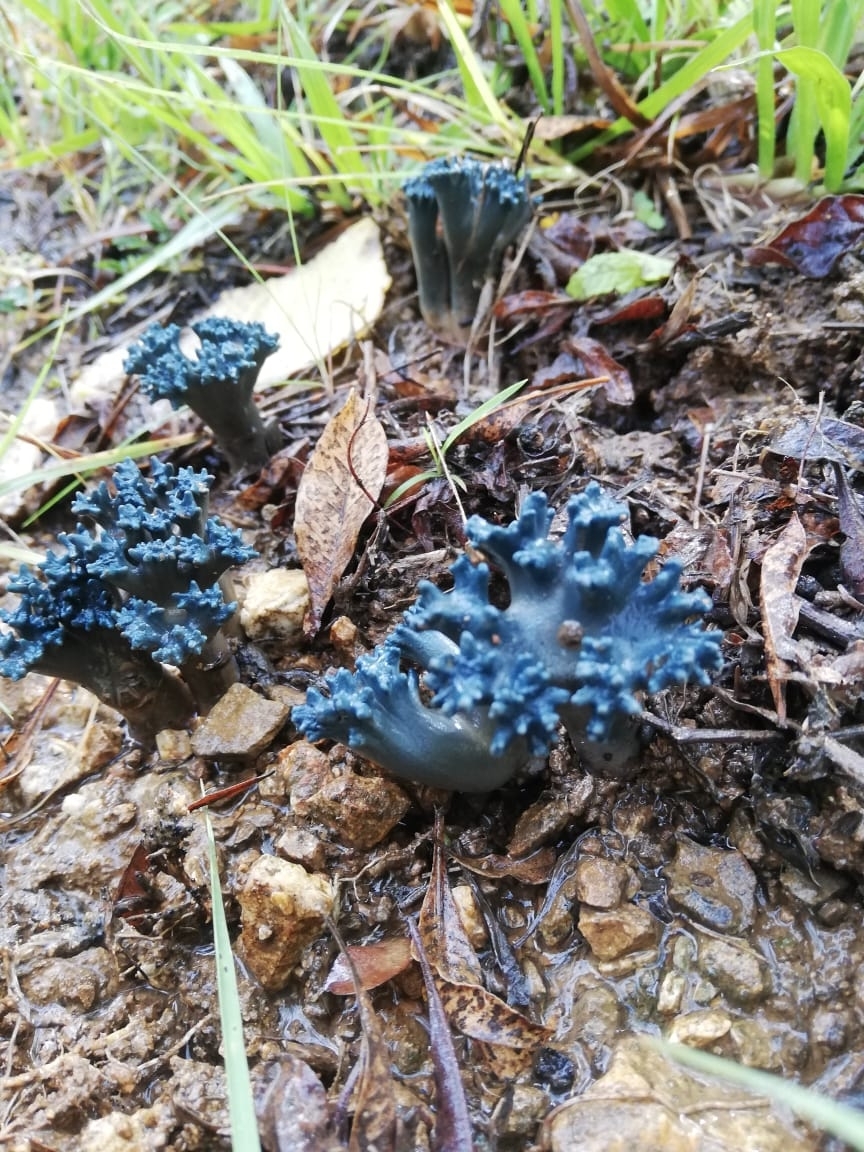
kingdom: Fungi
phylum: Basidiomycota
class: Agaricomycetes
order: Gomphales
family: Gomphaceae
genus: Phaeoclavulina
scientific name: Phaeoclavulina cyanocephala
